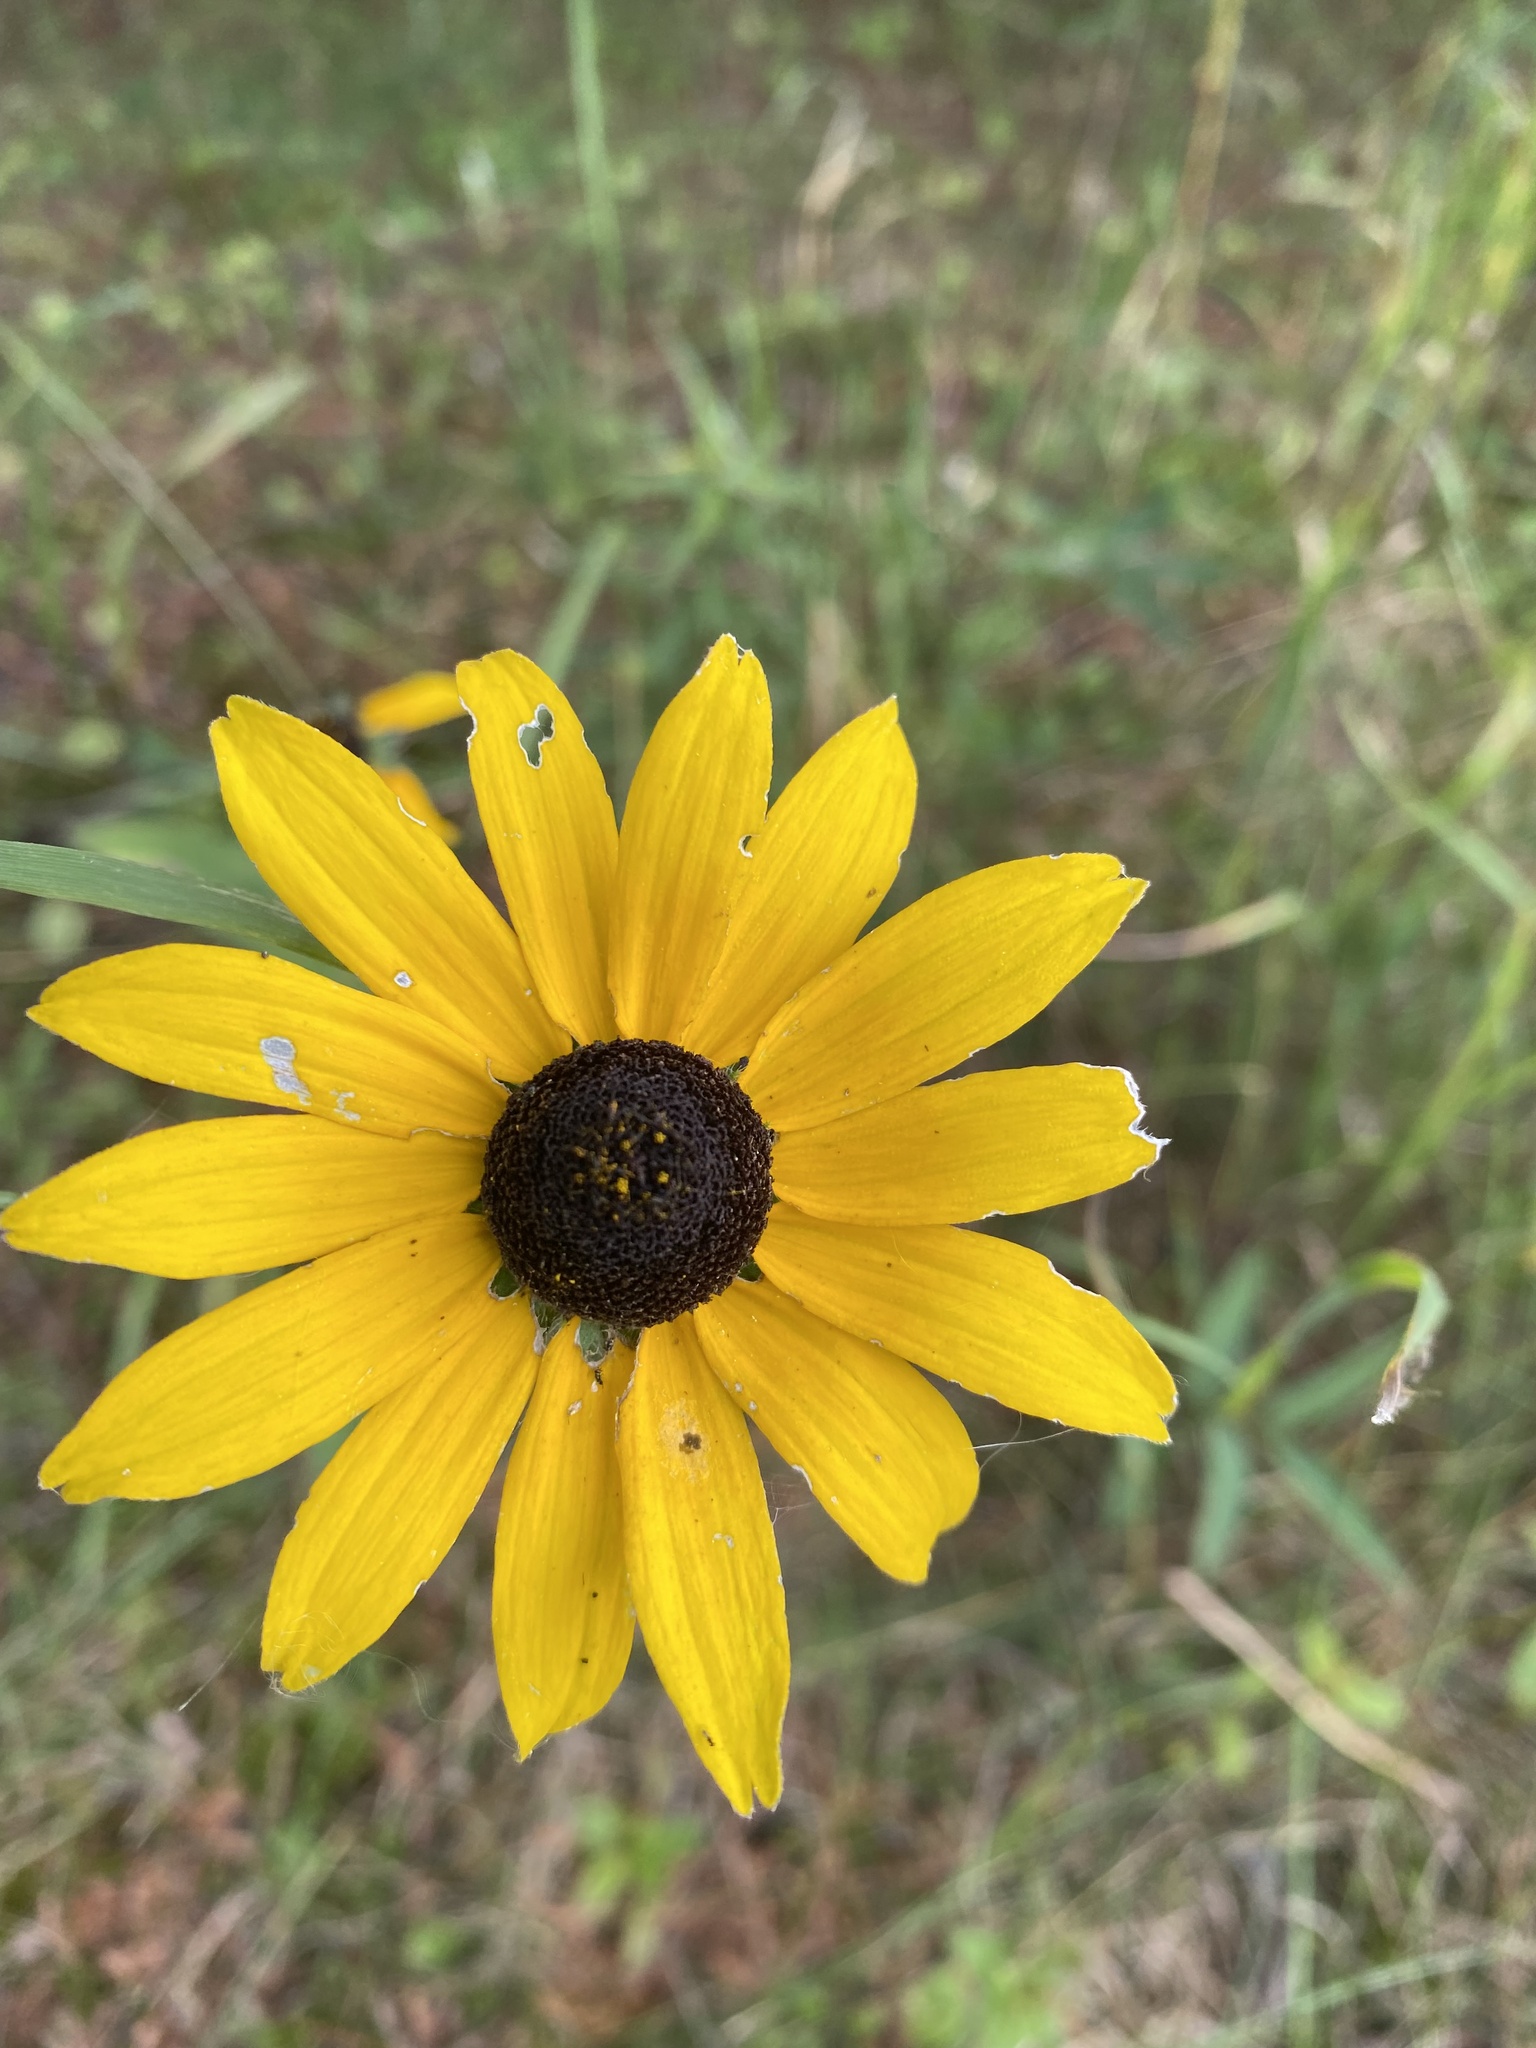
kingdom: Plantae
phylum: Tracheophyta
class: Magnoliopsida
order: Asterales
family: Asteraceae
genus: Rudbeckia
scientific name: Rudbeckia hirta
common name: Black-eyed-susan
